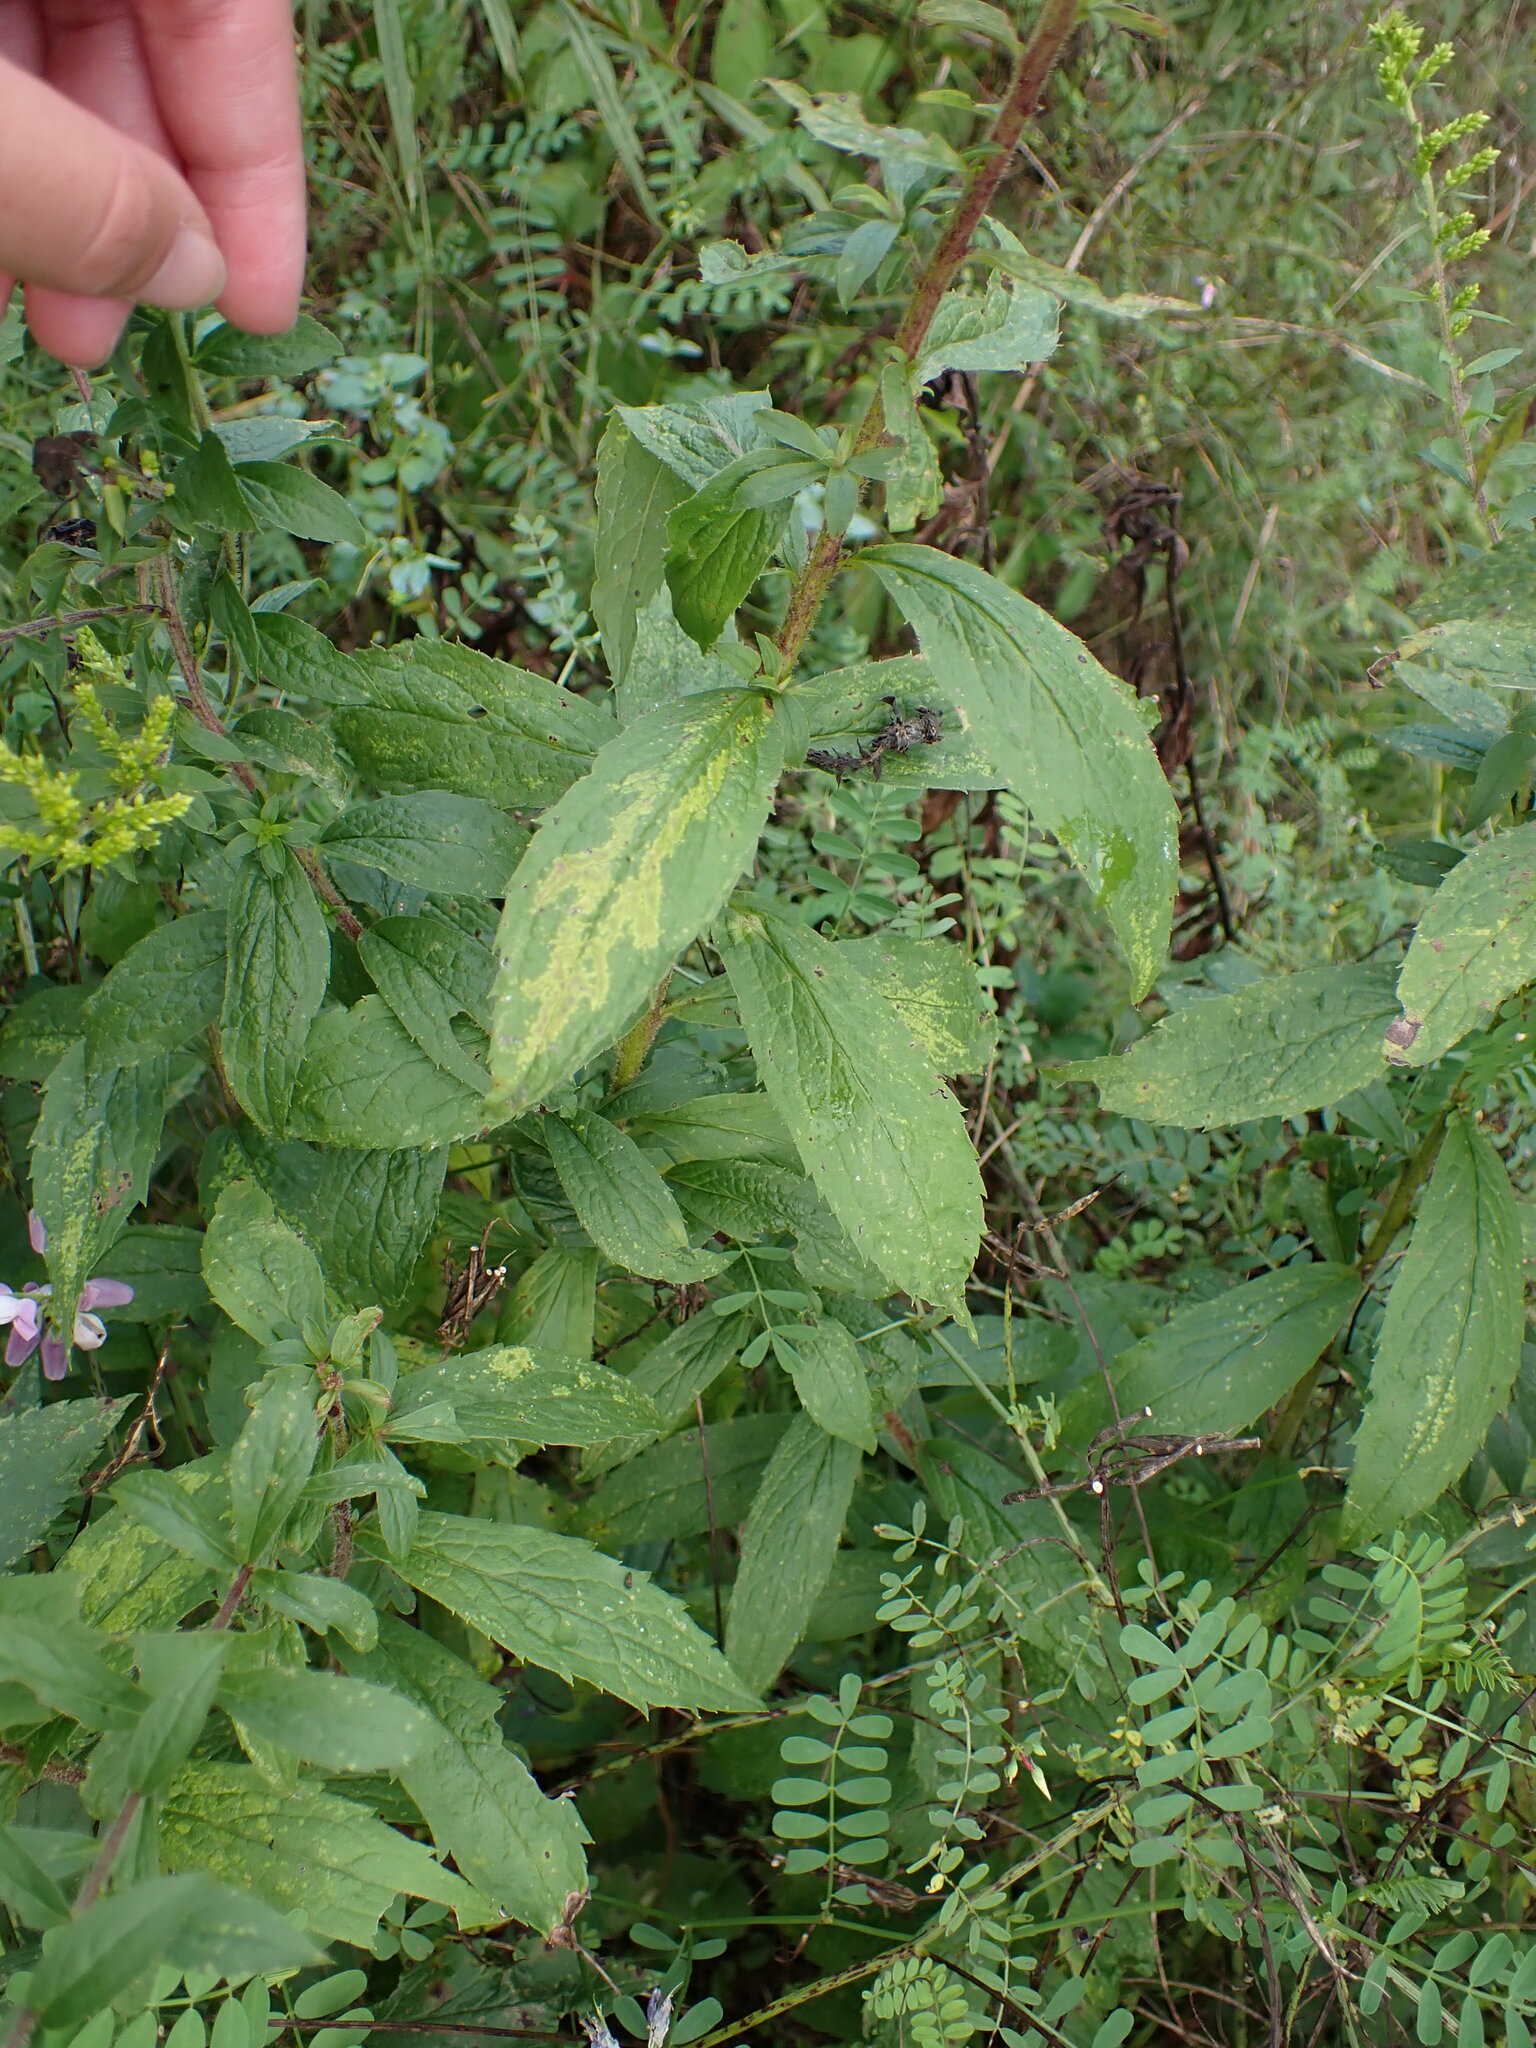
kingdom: Plantae
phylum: Tracheophyta
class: Magnoliopsida
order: Asterales
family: Asteraceae
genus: Solidago
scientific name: Solidago rugosa
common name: Rough-stemmed goldenrod
